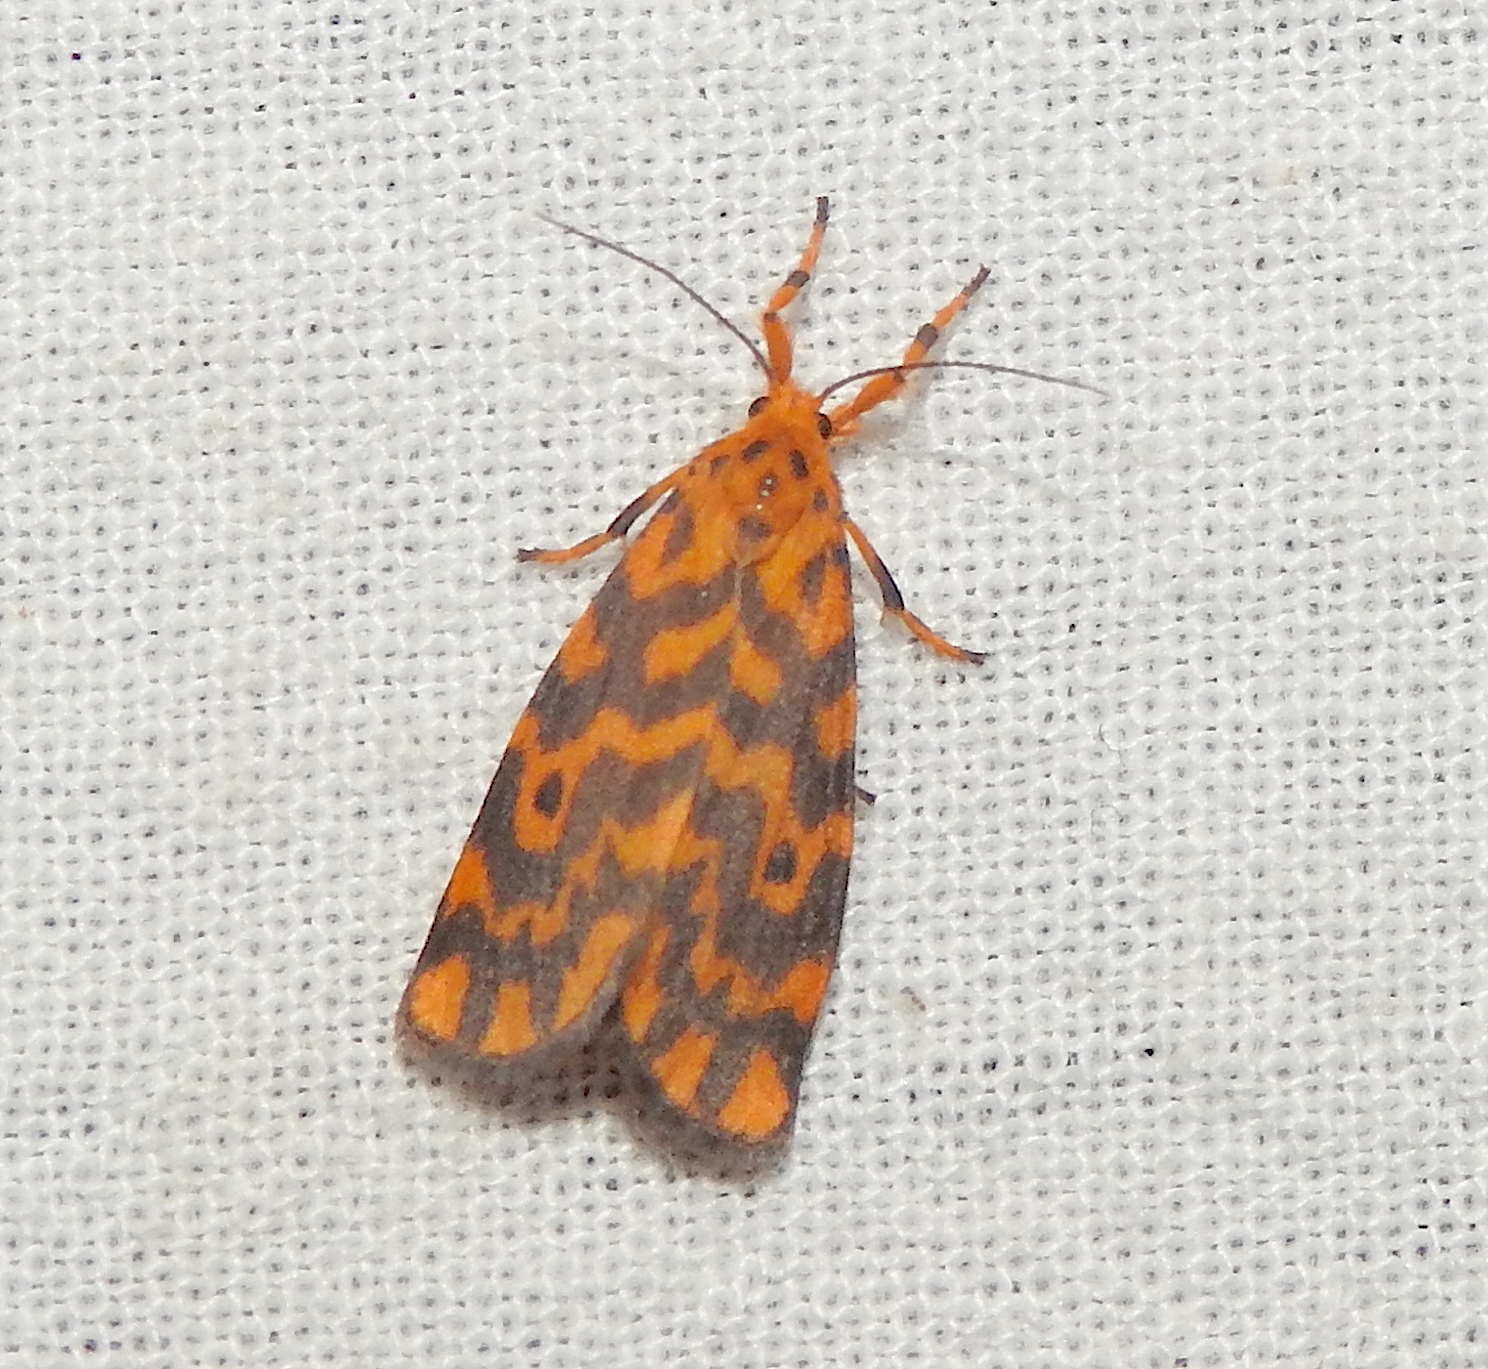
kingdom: Animalia
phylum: Arthropoda
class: Insecta
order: Lepidoptera
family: Erebidae
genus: Nepita
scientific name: Nepita conferta
